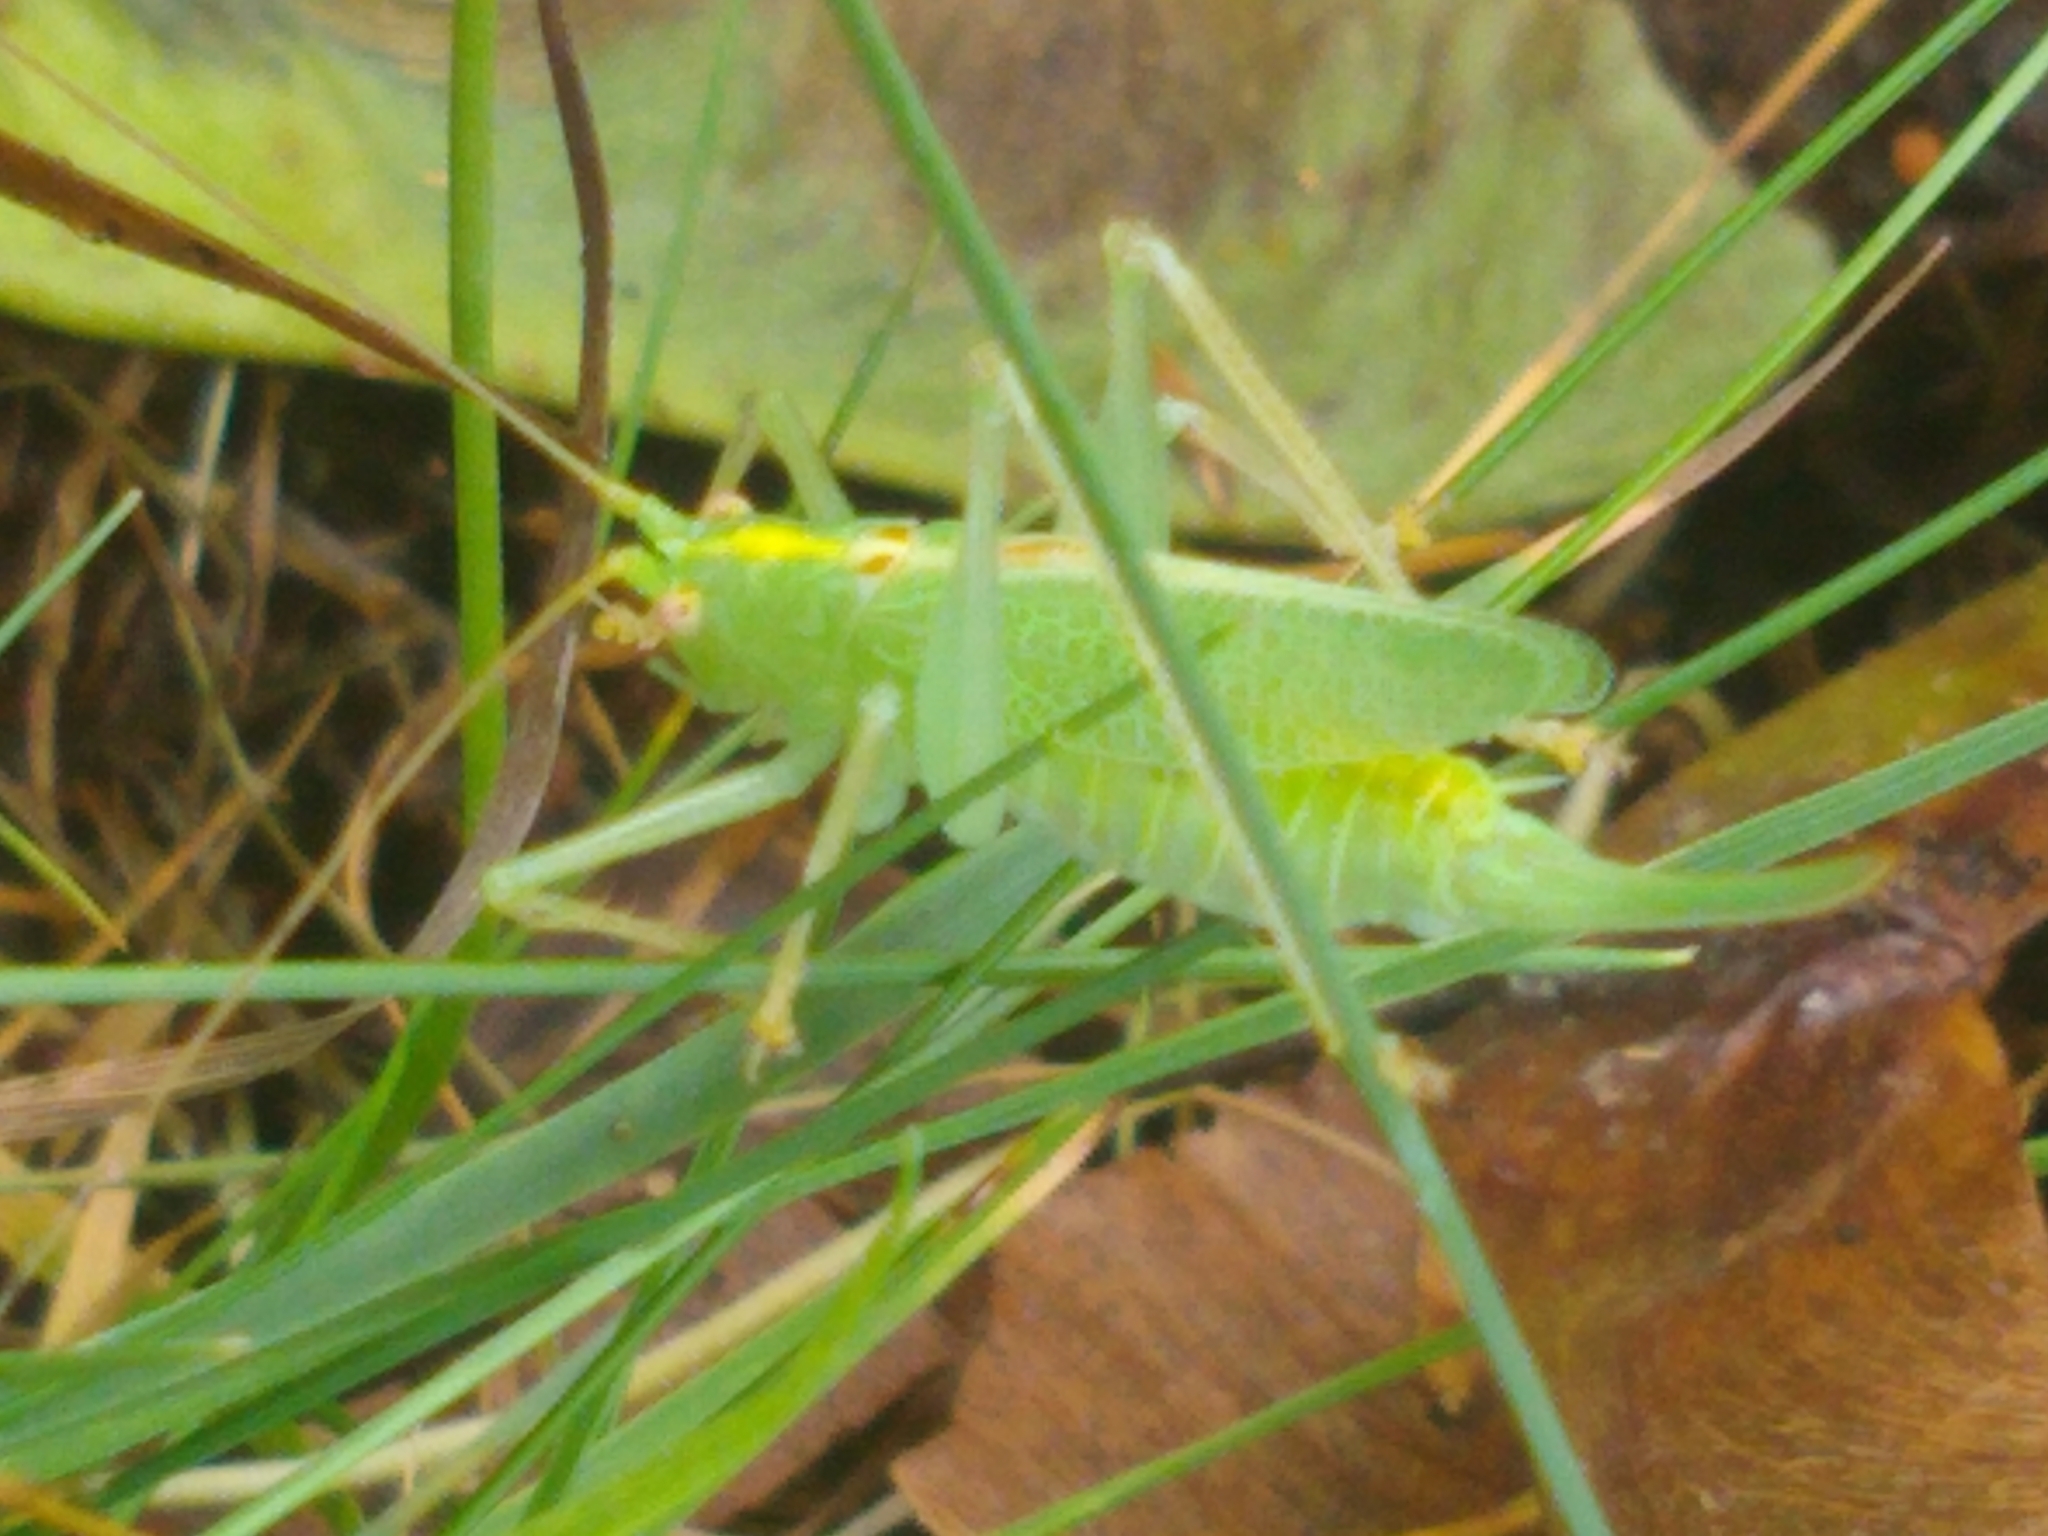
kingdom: Animalia
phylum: Arthropoda
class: Insecta
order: Orthoptera
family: Tettigoniidae
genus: Meconema
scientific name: Meconema thalassinum
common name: Oak bush-cricket
